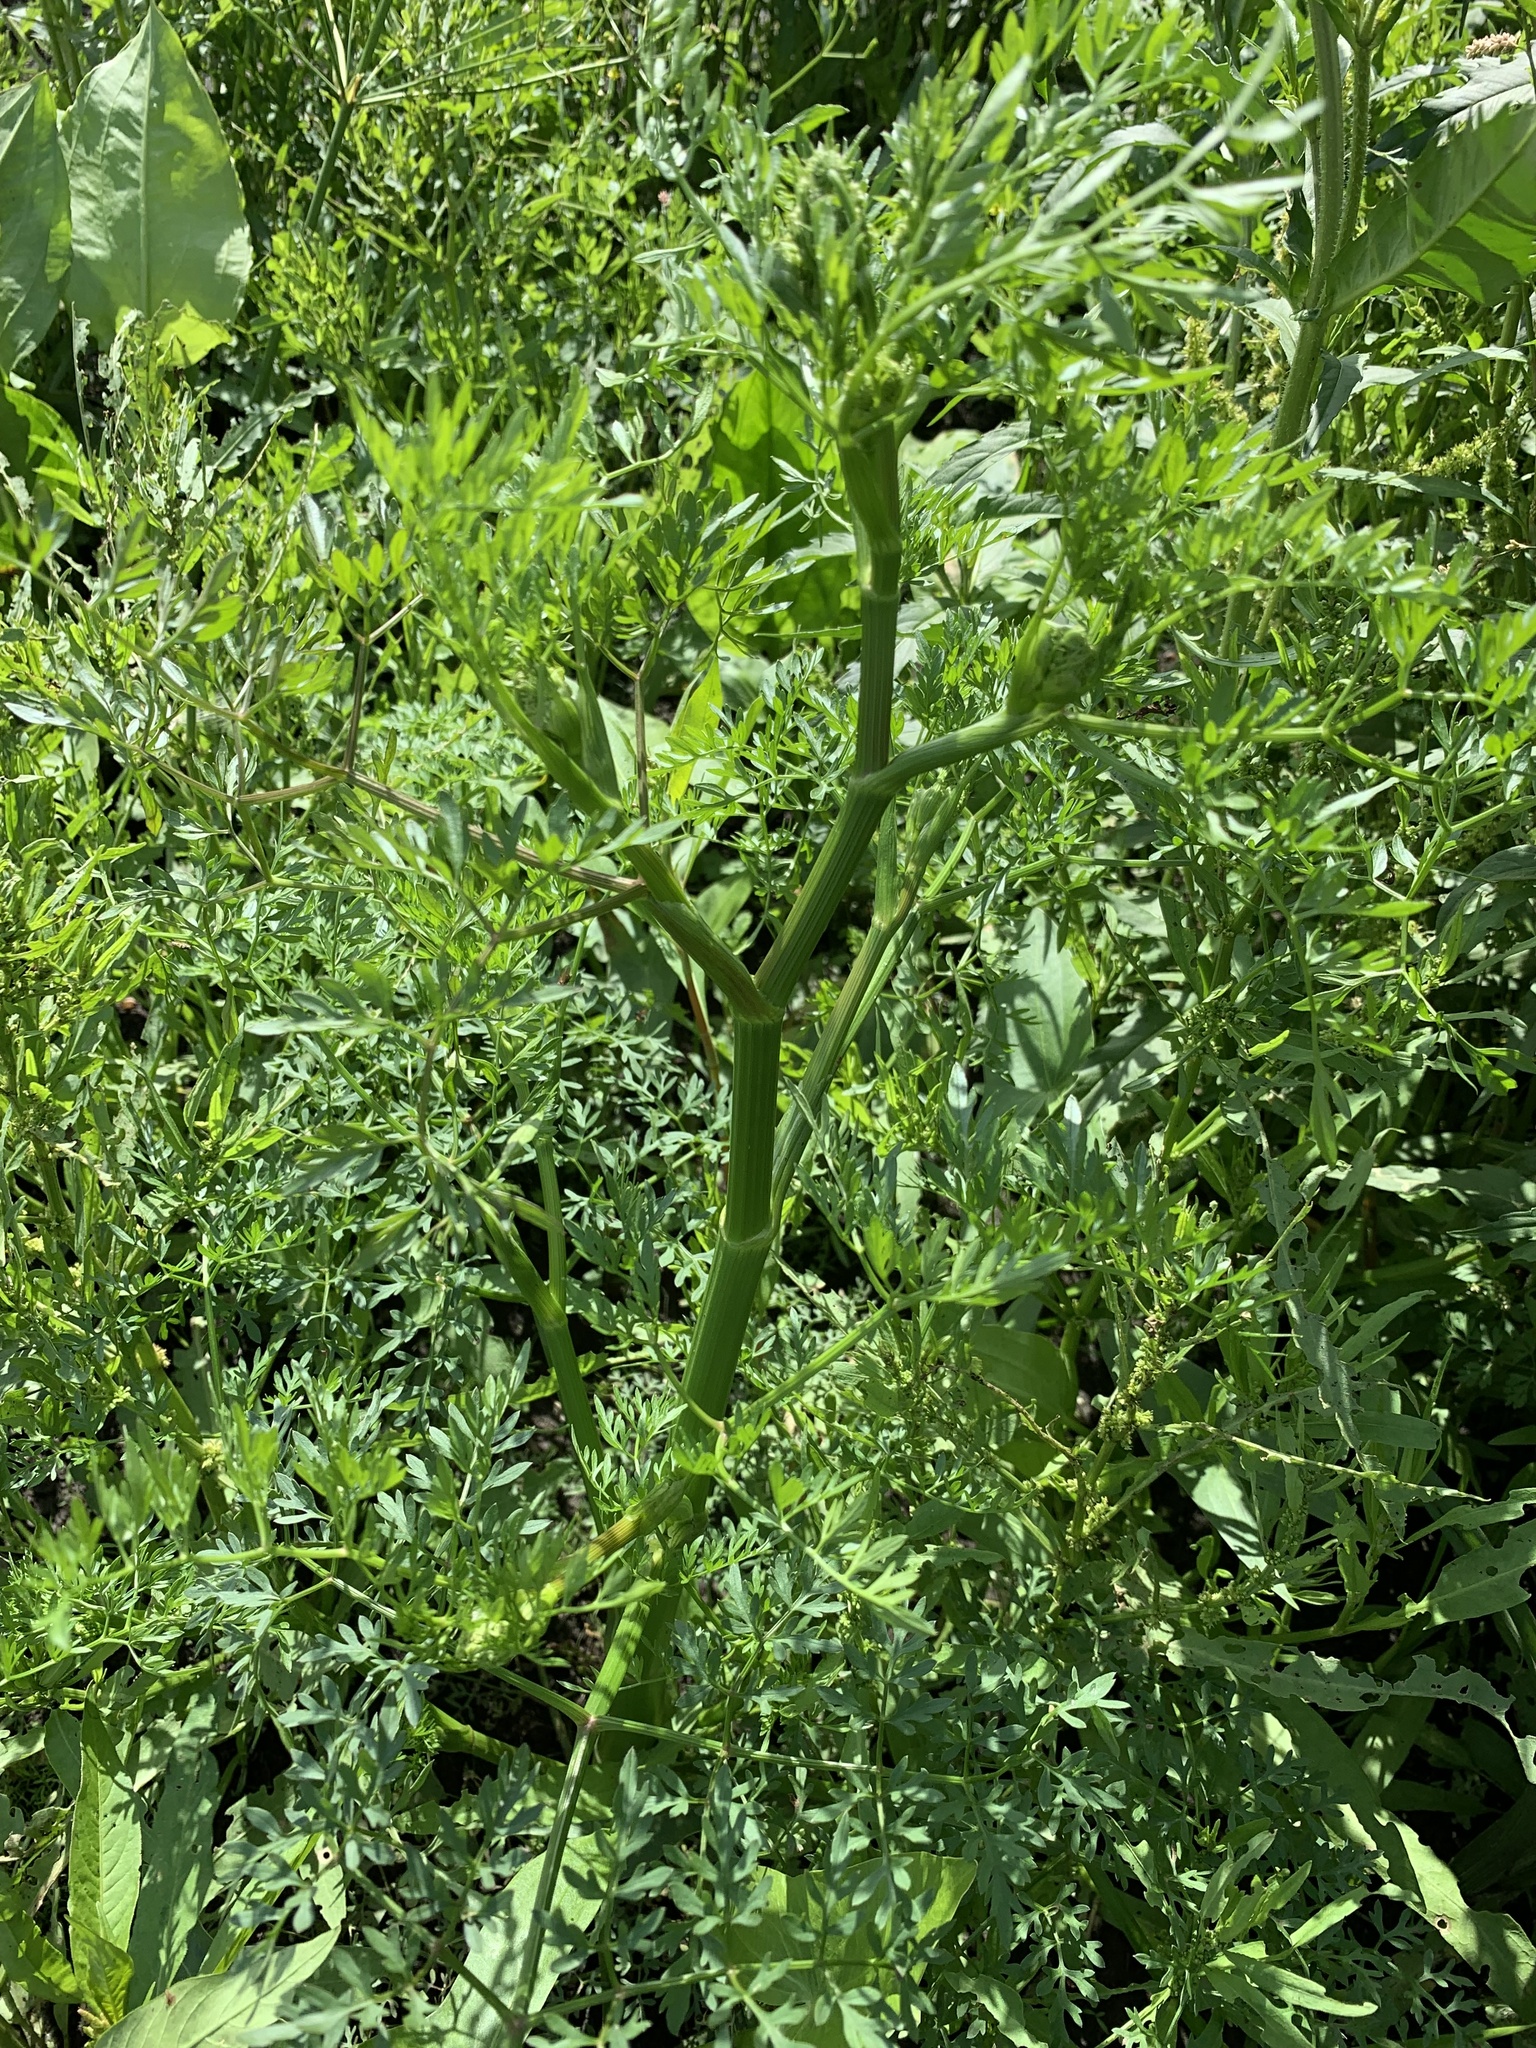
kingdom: Plantae
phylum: Tracheophyta
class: Magnoliopsida
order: Apiales
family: Apiaceae
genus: Oenanthe
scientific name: Oenanthe aquatica
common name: Fine-leaved water-dropwort
